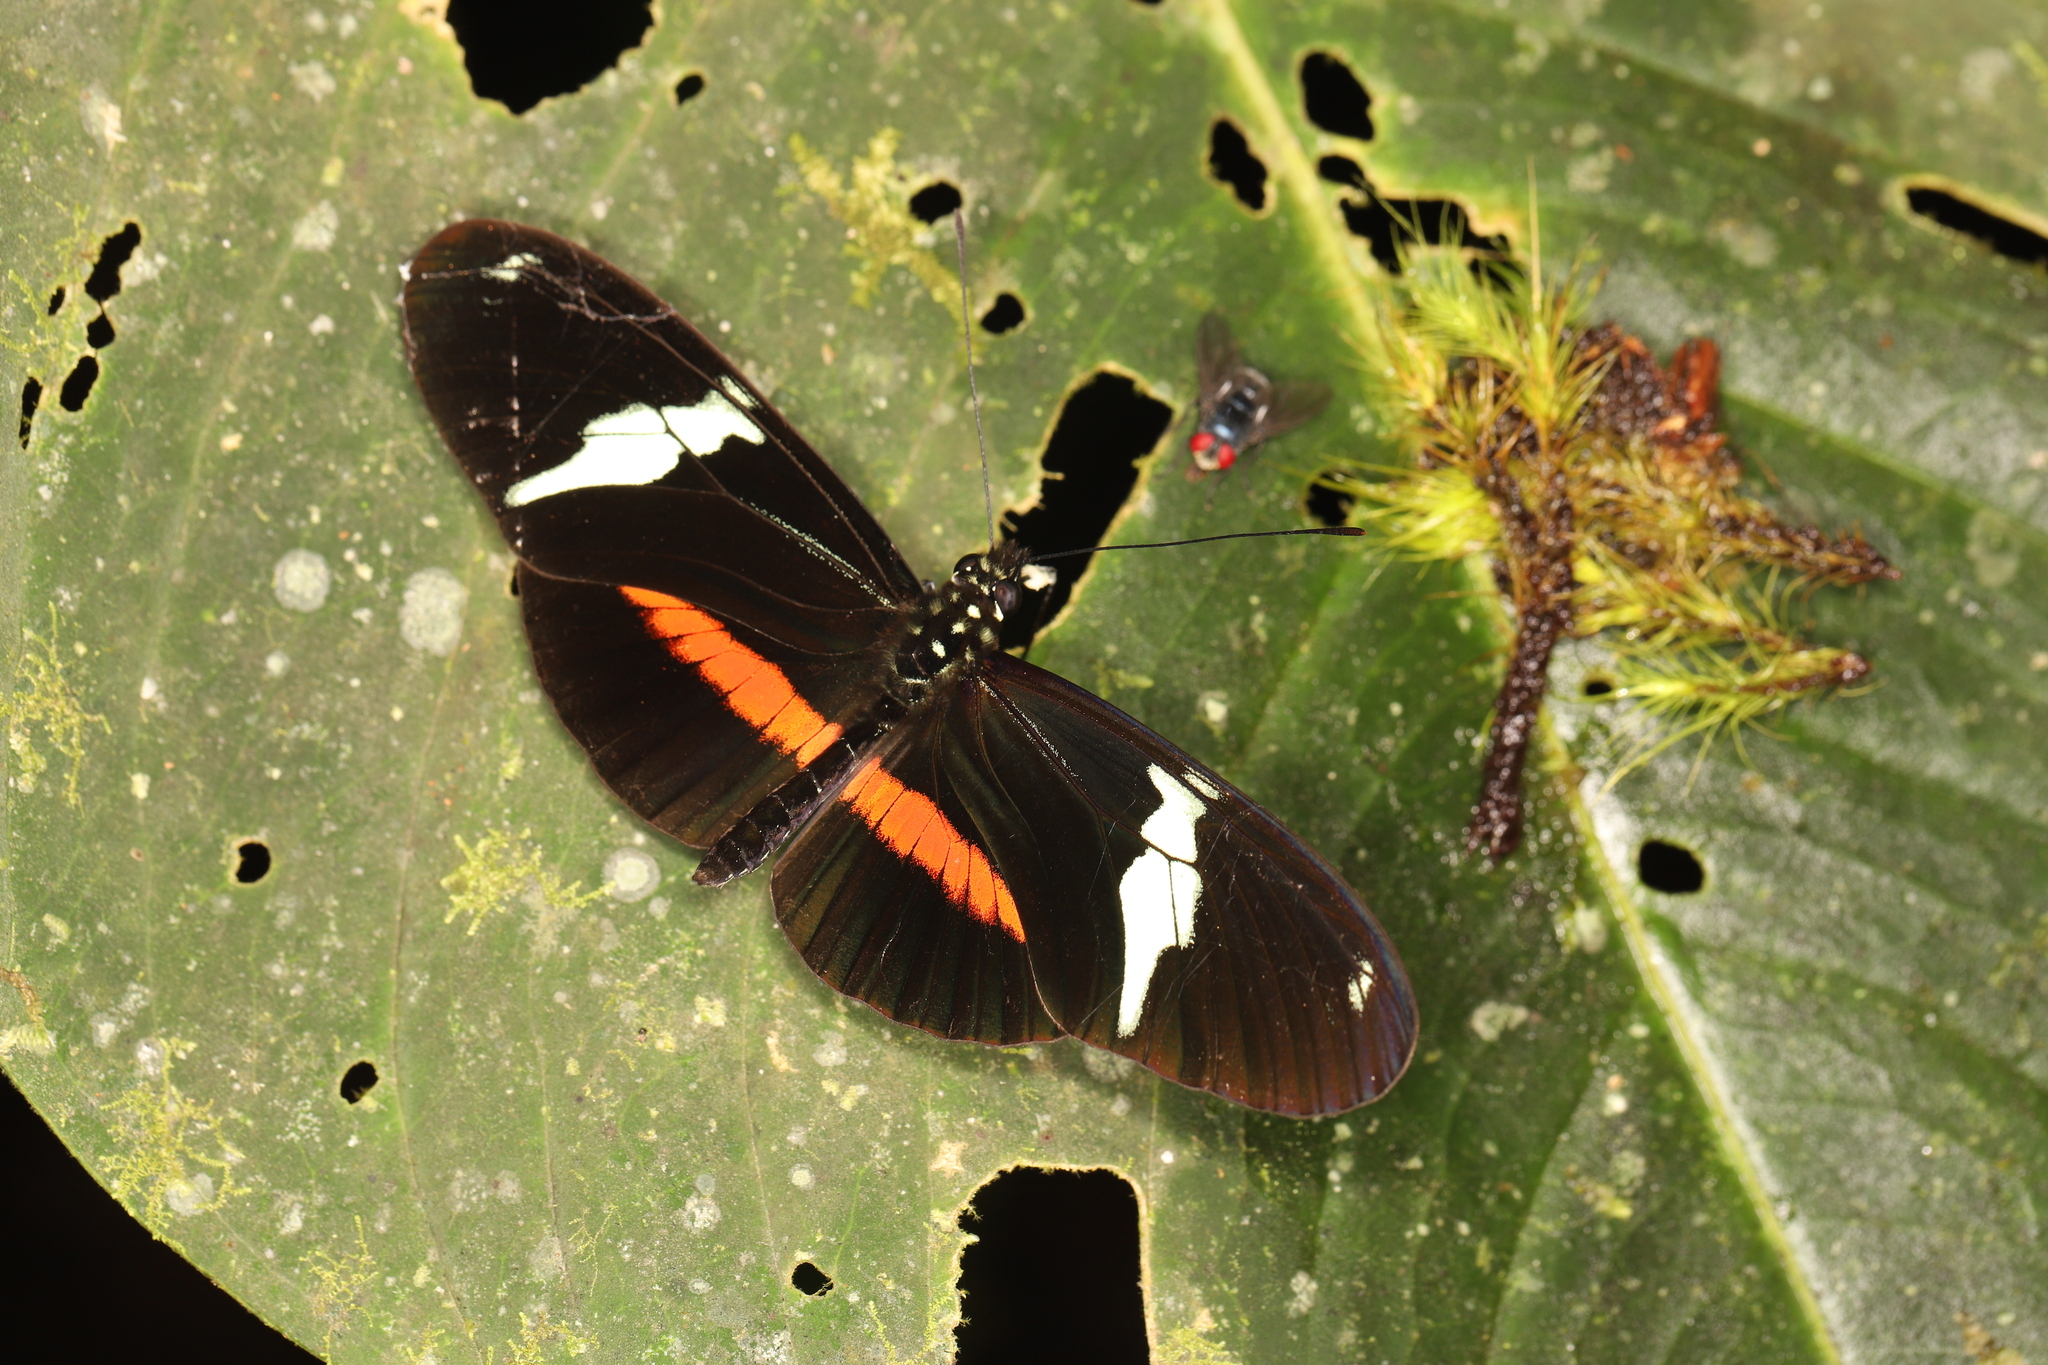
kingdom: Animalia
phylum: Arthropoda
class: Insecta
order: Lepidoptera
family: Nymphalidae
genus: Heliconius
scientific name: Heliconius clysonymus
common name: Clysonymus longwing
